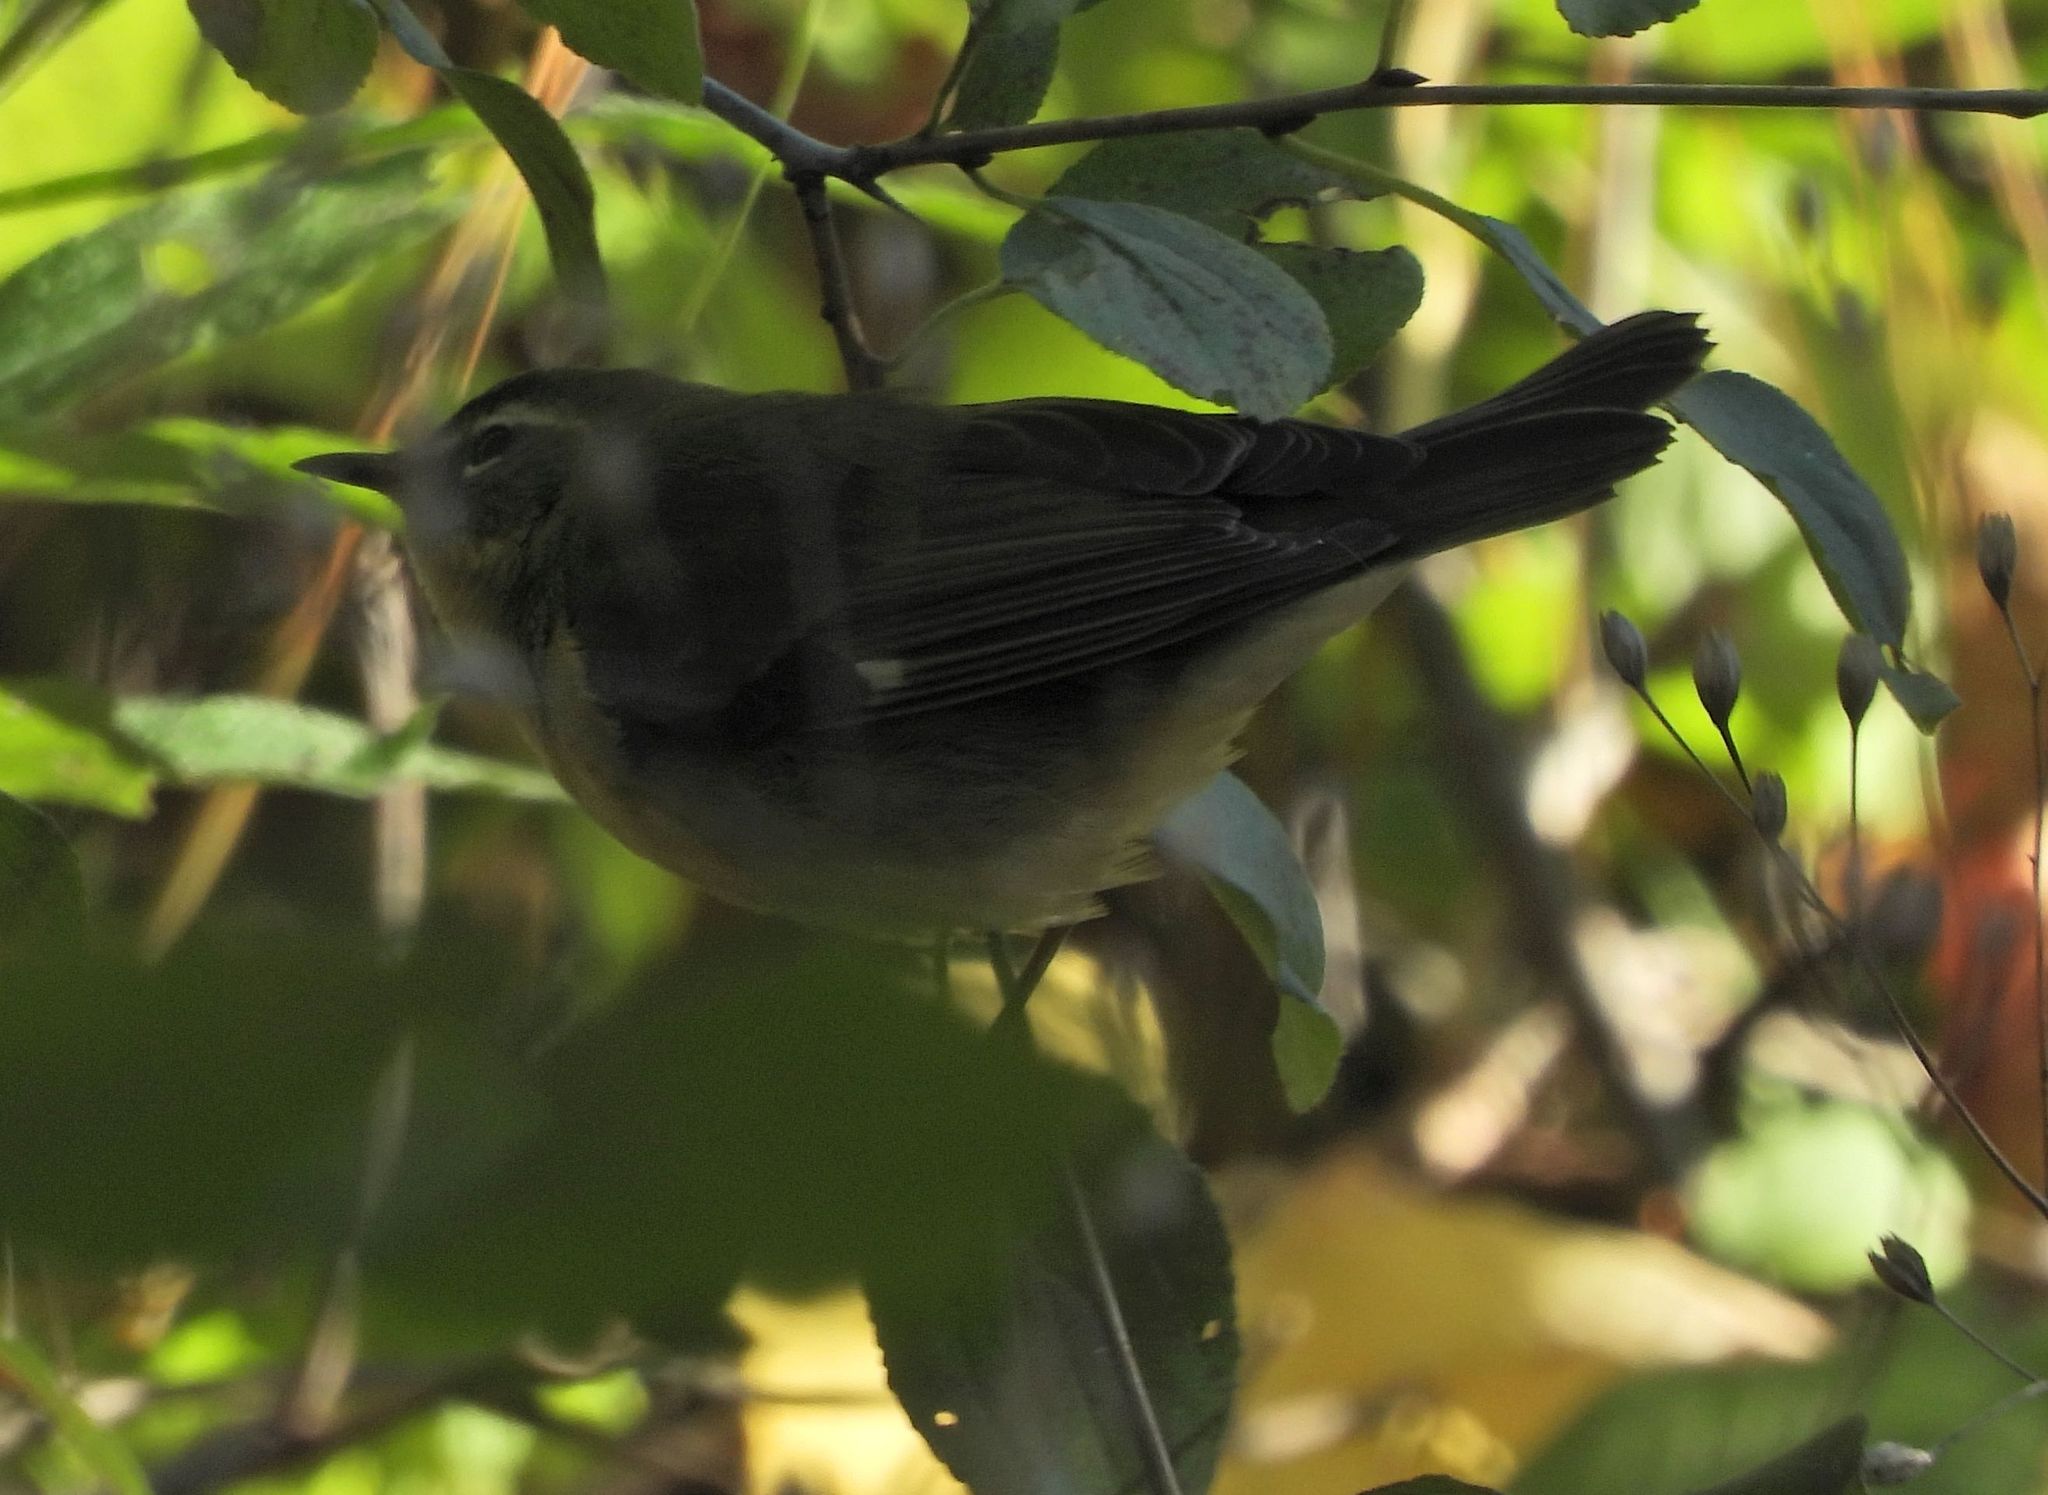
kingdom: Animalia
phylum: Chordata
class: Aves
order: Passeriformes
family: Parulidae
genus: Setophaga
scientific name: Setophaga caerulescens
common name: Black-throated blue warbler
